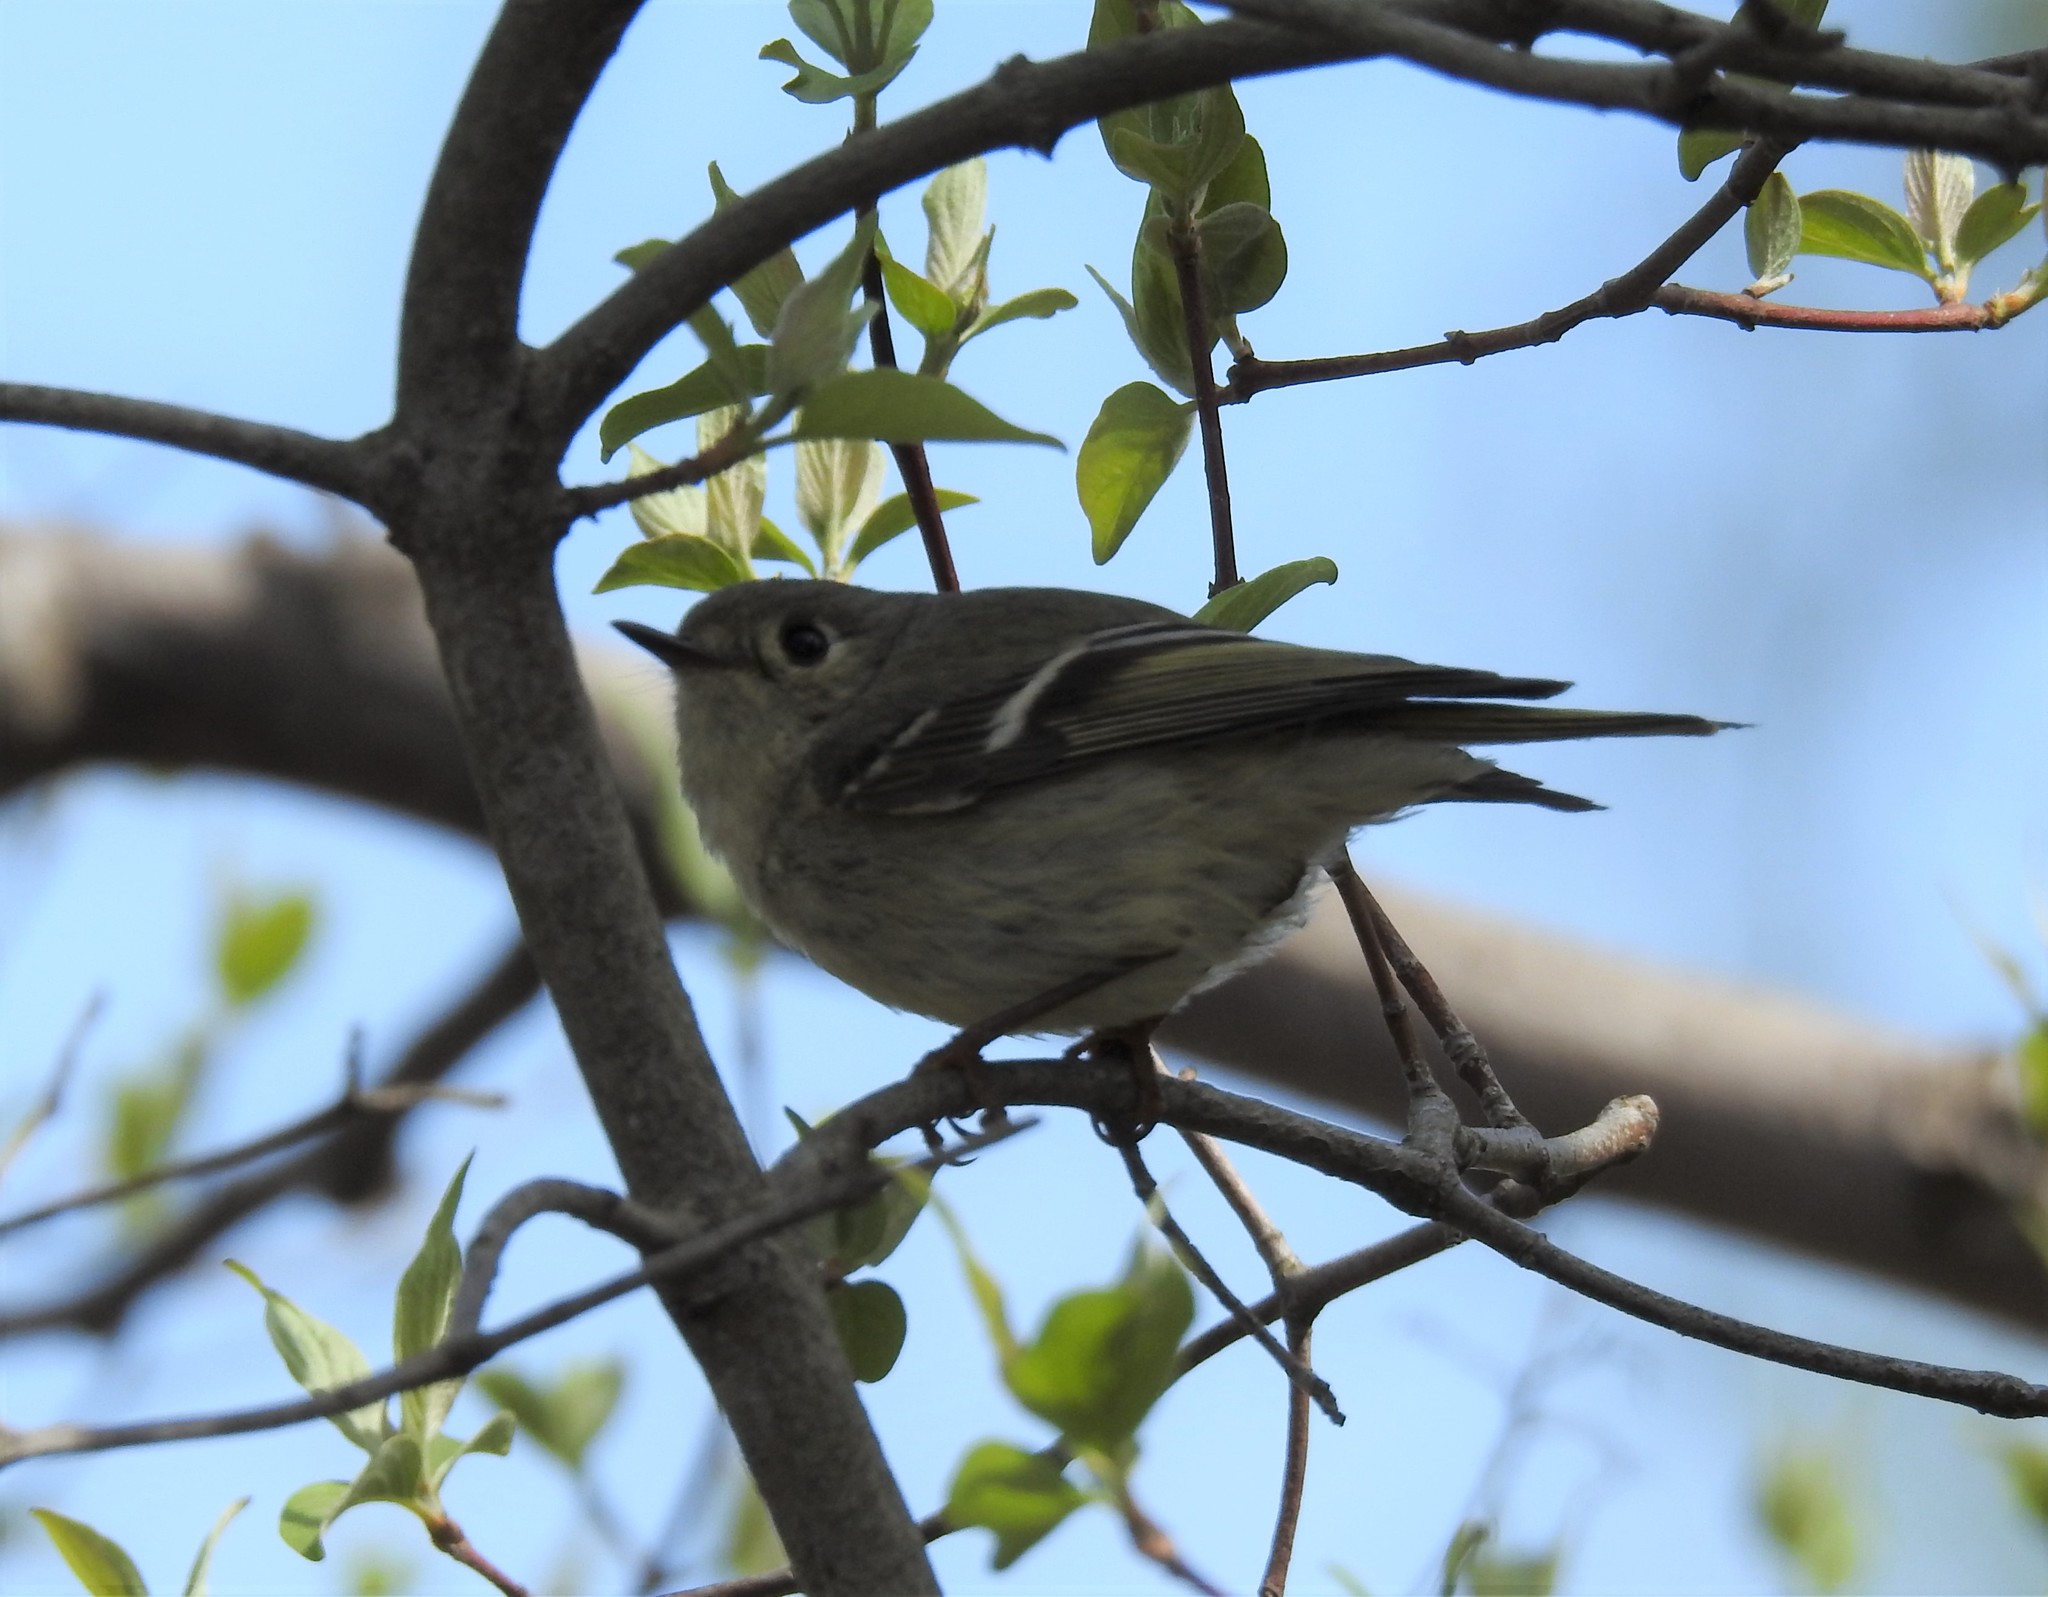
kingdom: Animalia
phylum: Chordata
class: Aves
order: Passeriformes
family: Regulidae
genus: Regulus
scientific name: Regulus calendula
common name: Ruby-crowned kinglet
